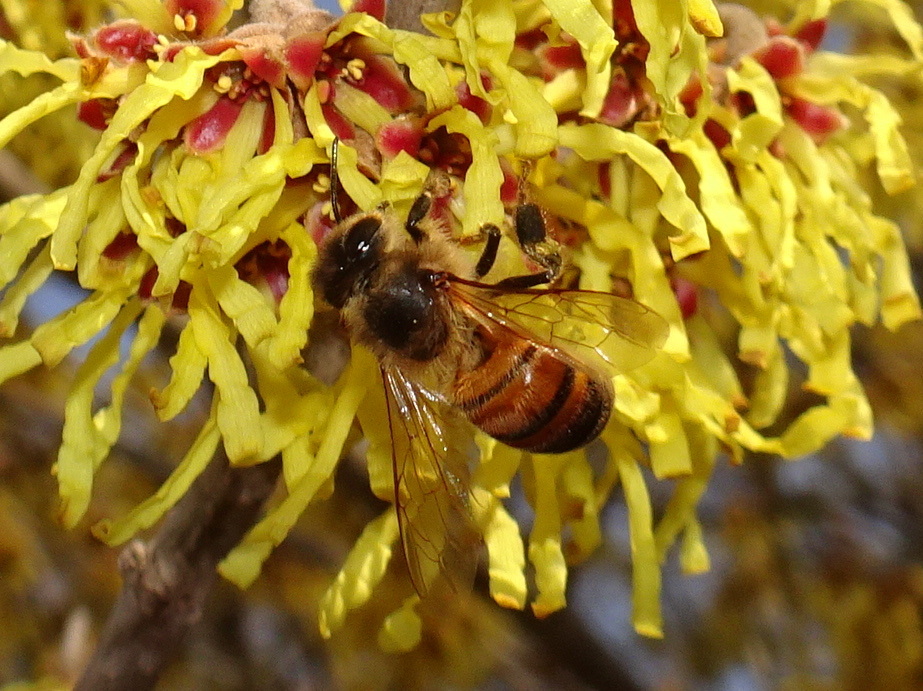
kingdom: Animalia
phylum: Arthropoda
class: Insecta
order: Hymenoptera
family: Apidae
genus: Apis
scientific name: Apis mellifera
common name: Honey bee
